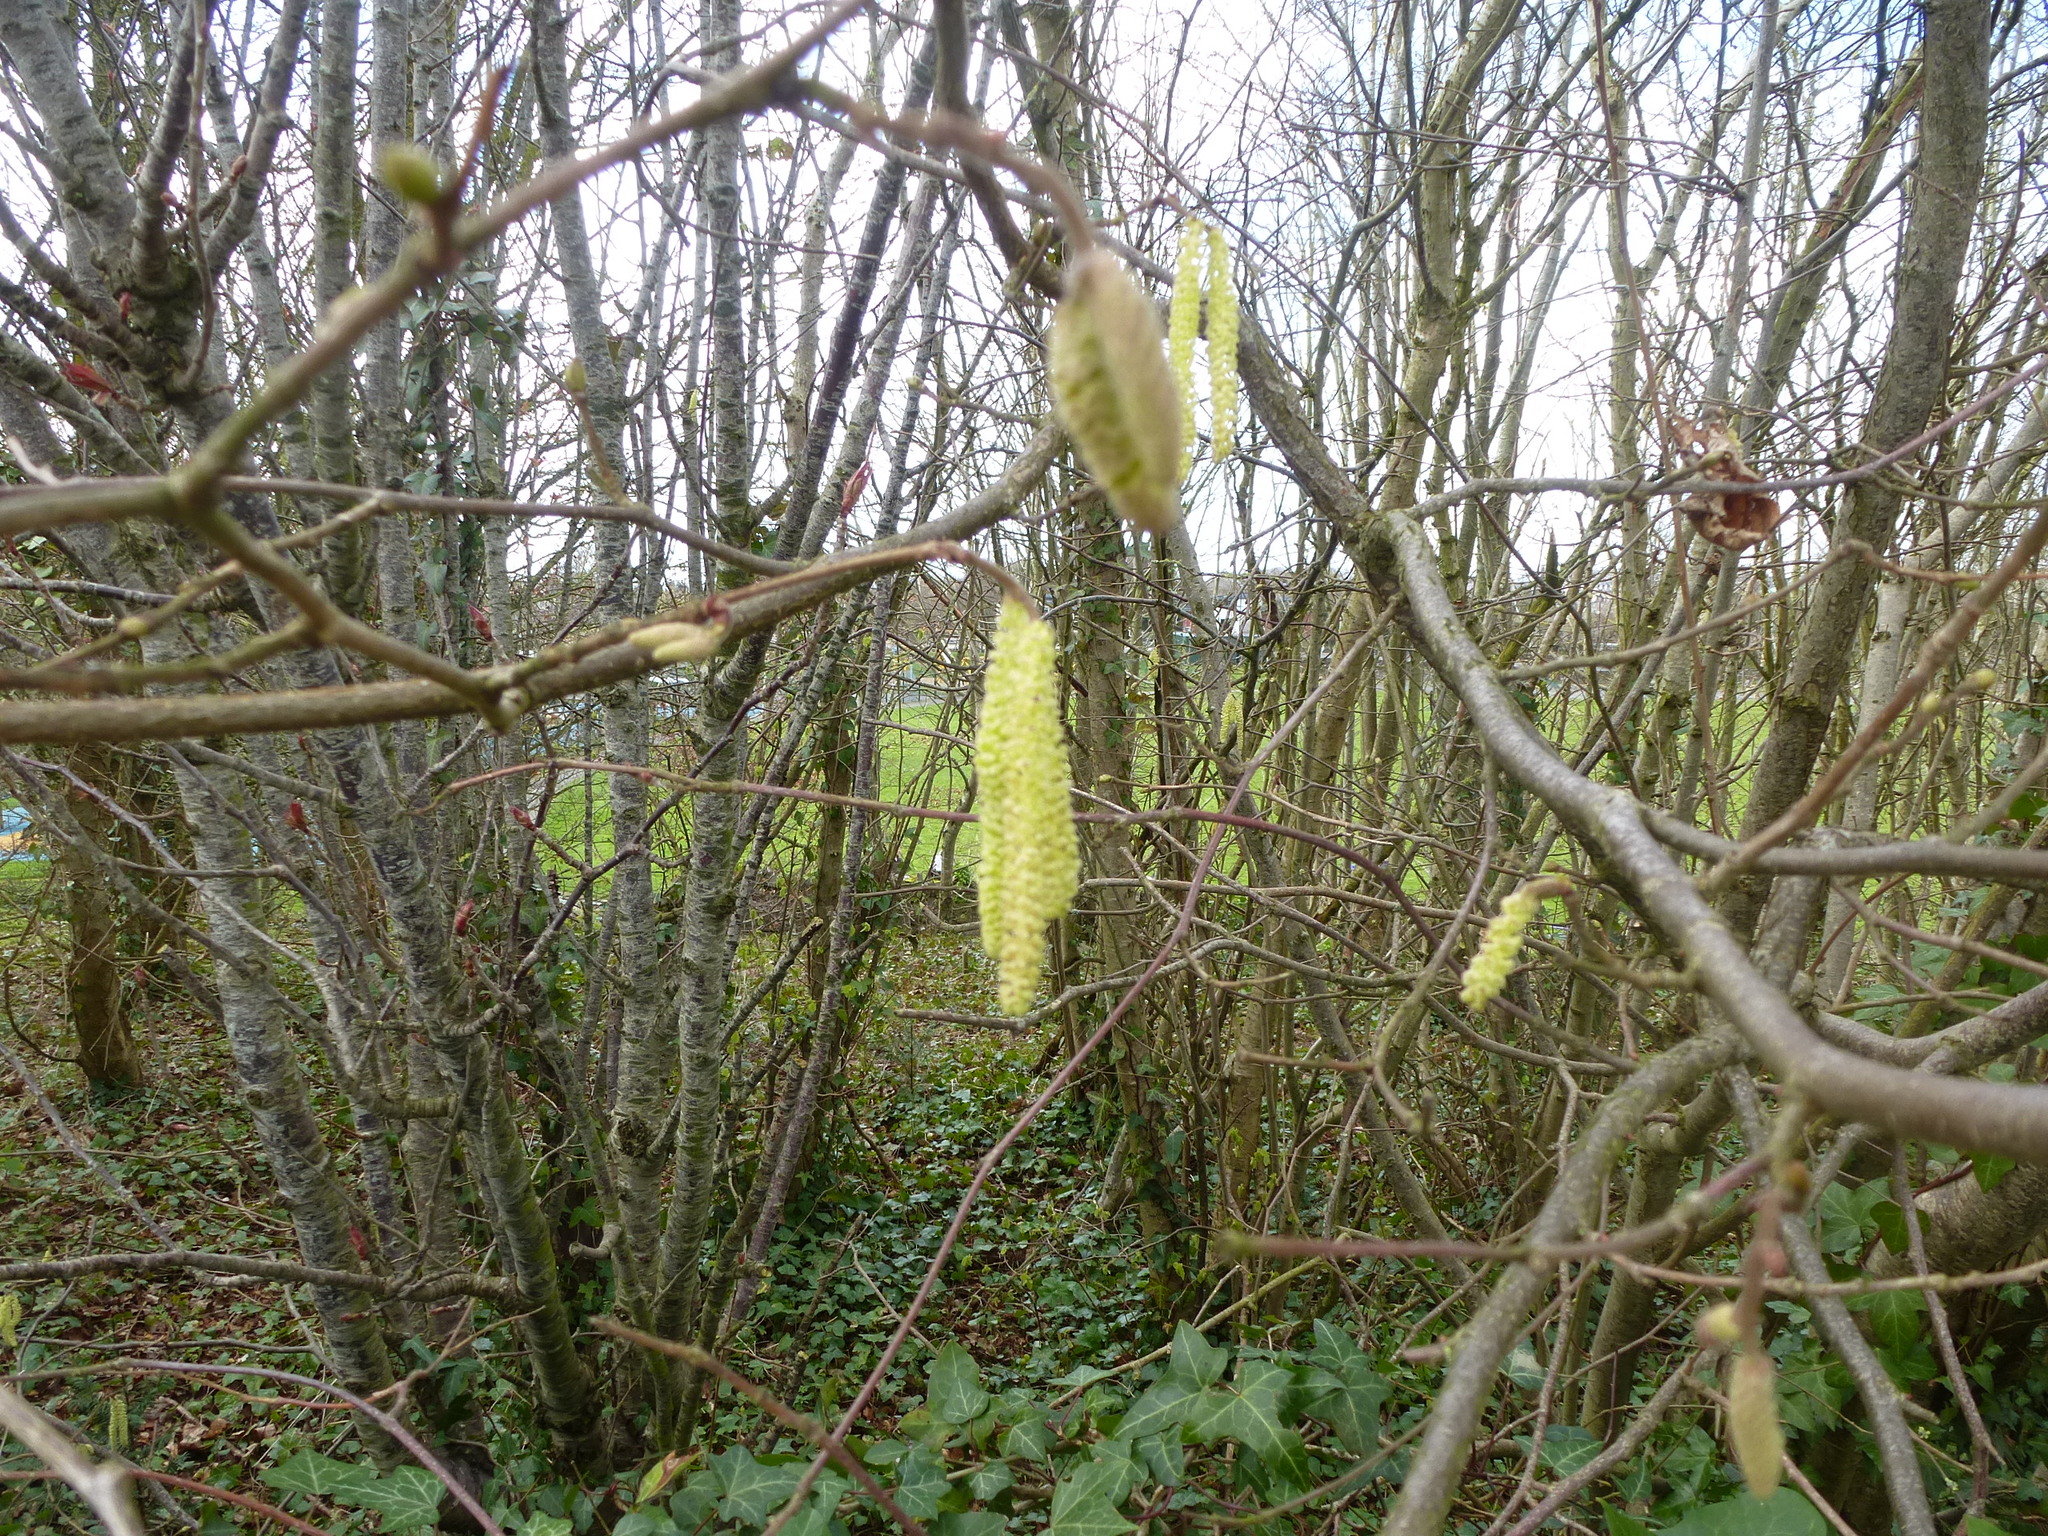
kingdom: Plantae
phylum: Tracheophyta
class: Magnoliopsida
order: Fagales
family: Betulaceae
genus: Corylus
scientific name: Corylus avellana
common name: European hazel
